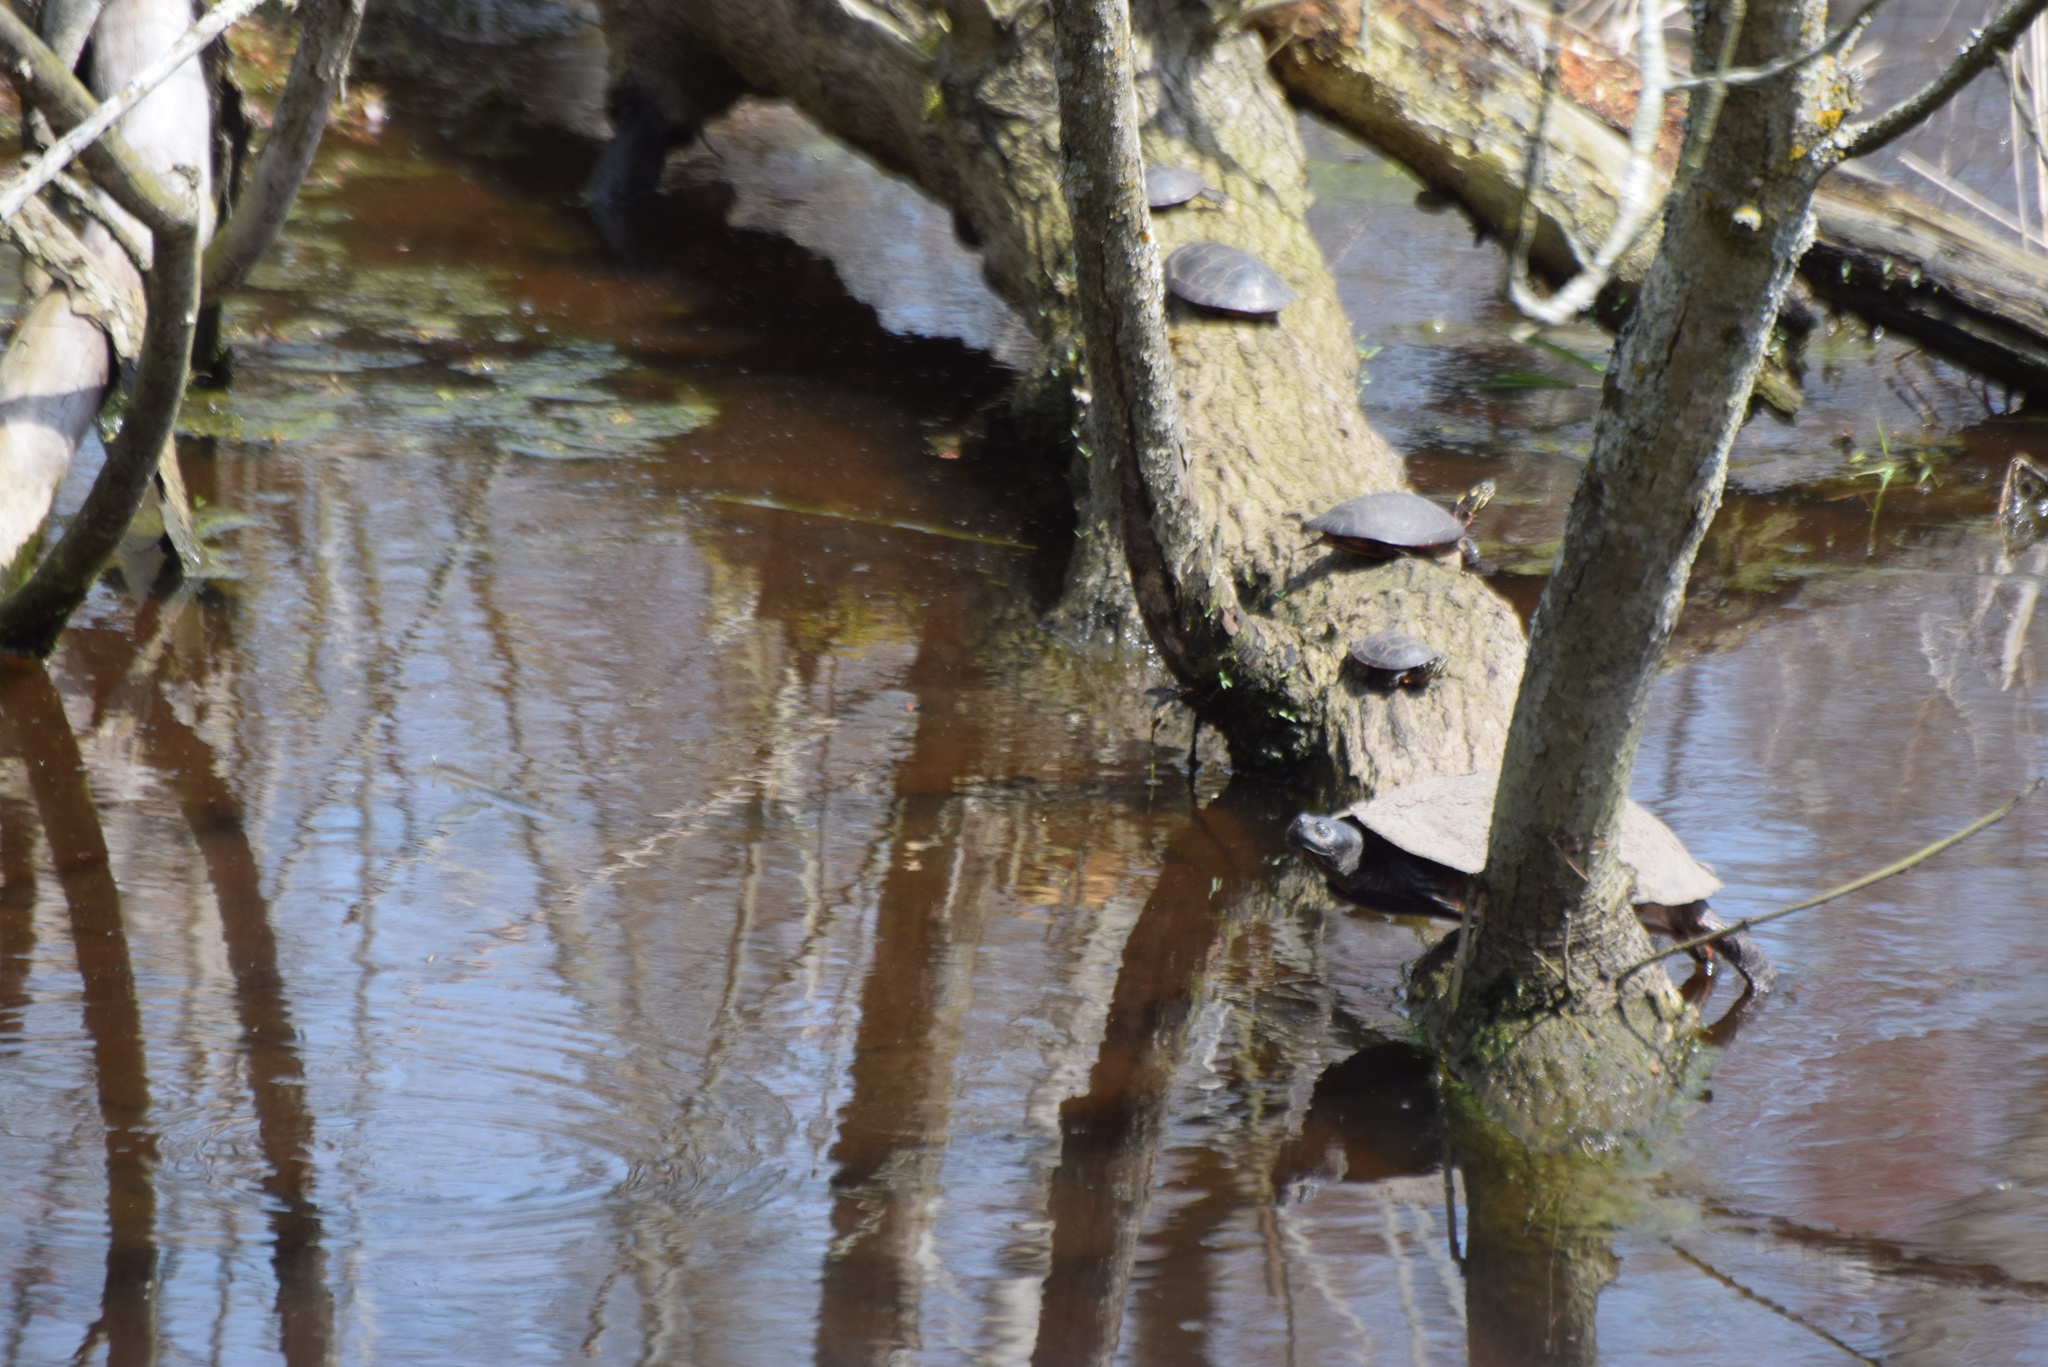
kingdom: Animalia
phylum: Chordata
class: Testudines
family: Emydidae
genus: Pseudemys
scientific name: Pseudemys rubriventris
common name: American red-bellied turtle
